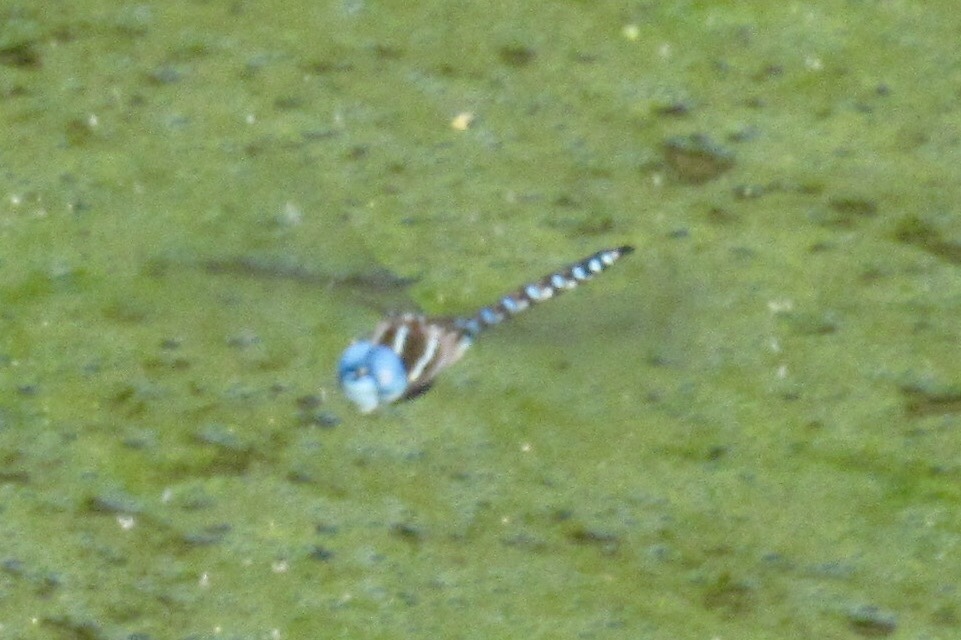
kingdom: Animalia
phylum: Arthropoda
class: Insecta
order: Odonata
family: Aeshnidae
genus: Rhionaeschna
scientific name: Rhionaeschna multicolor
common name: Blue-eyed darner
